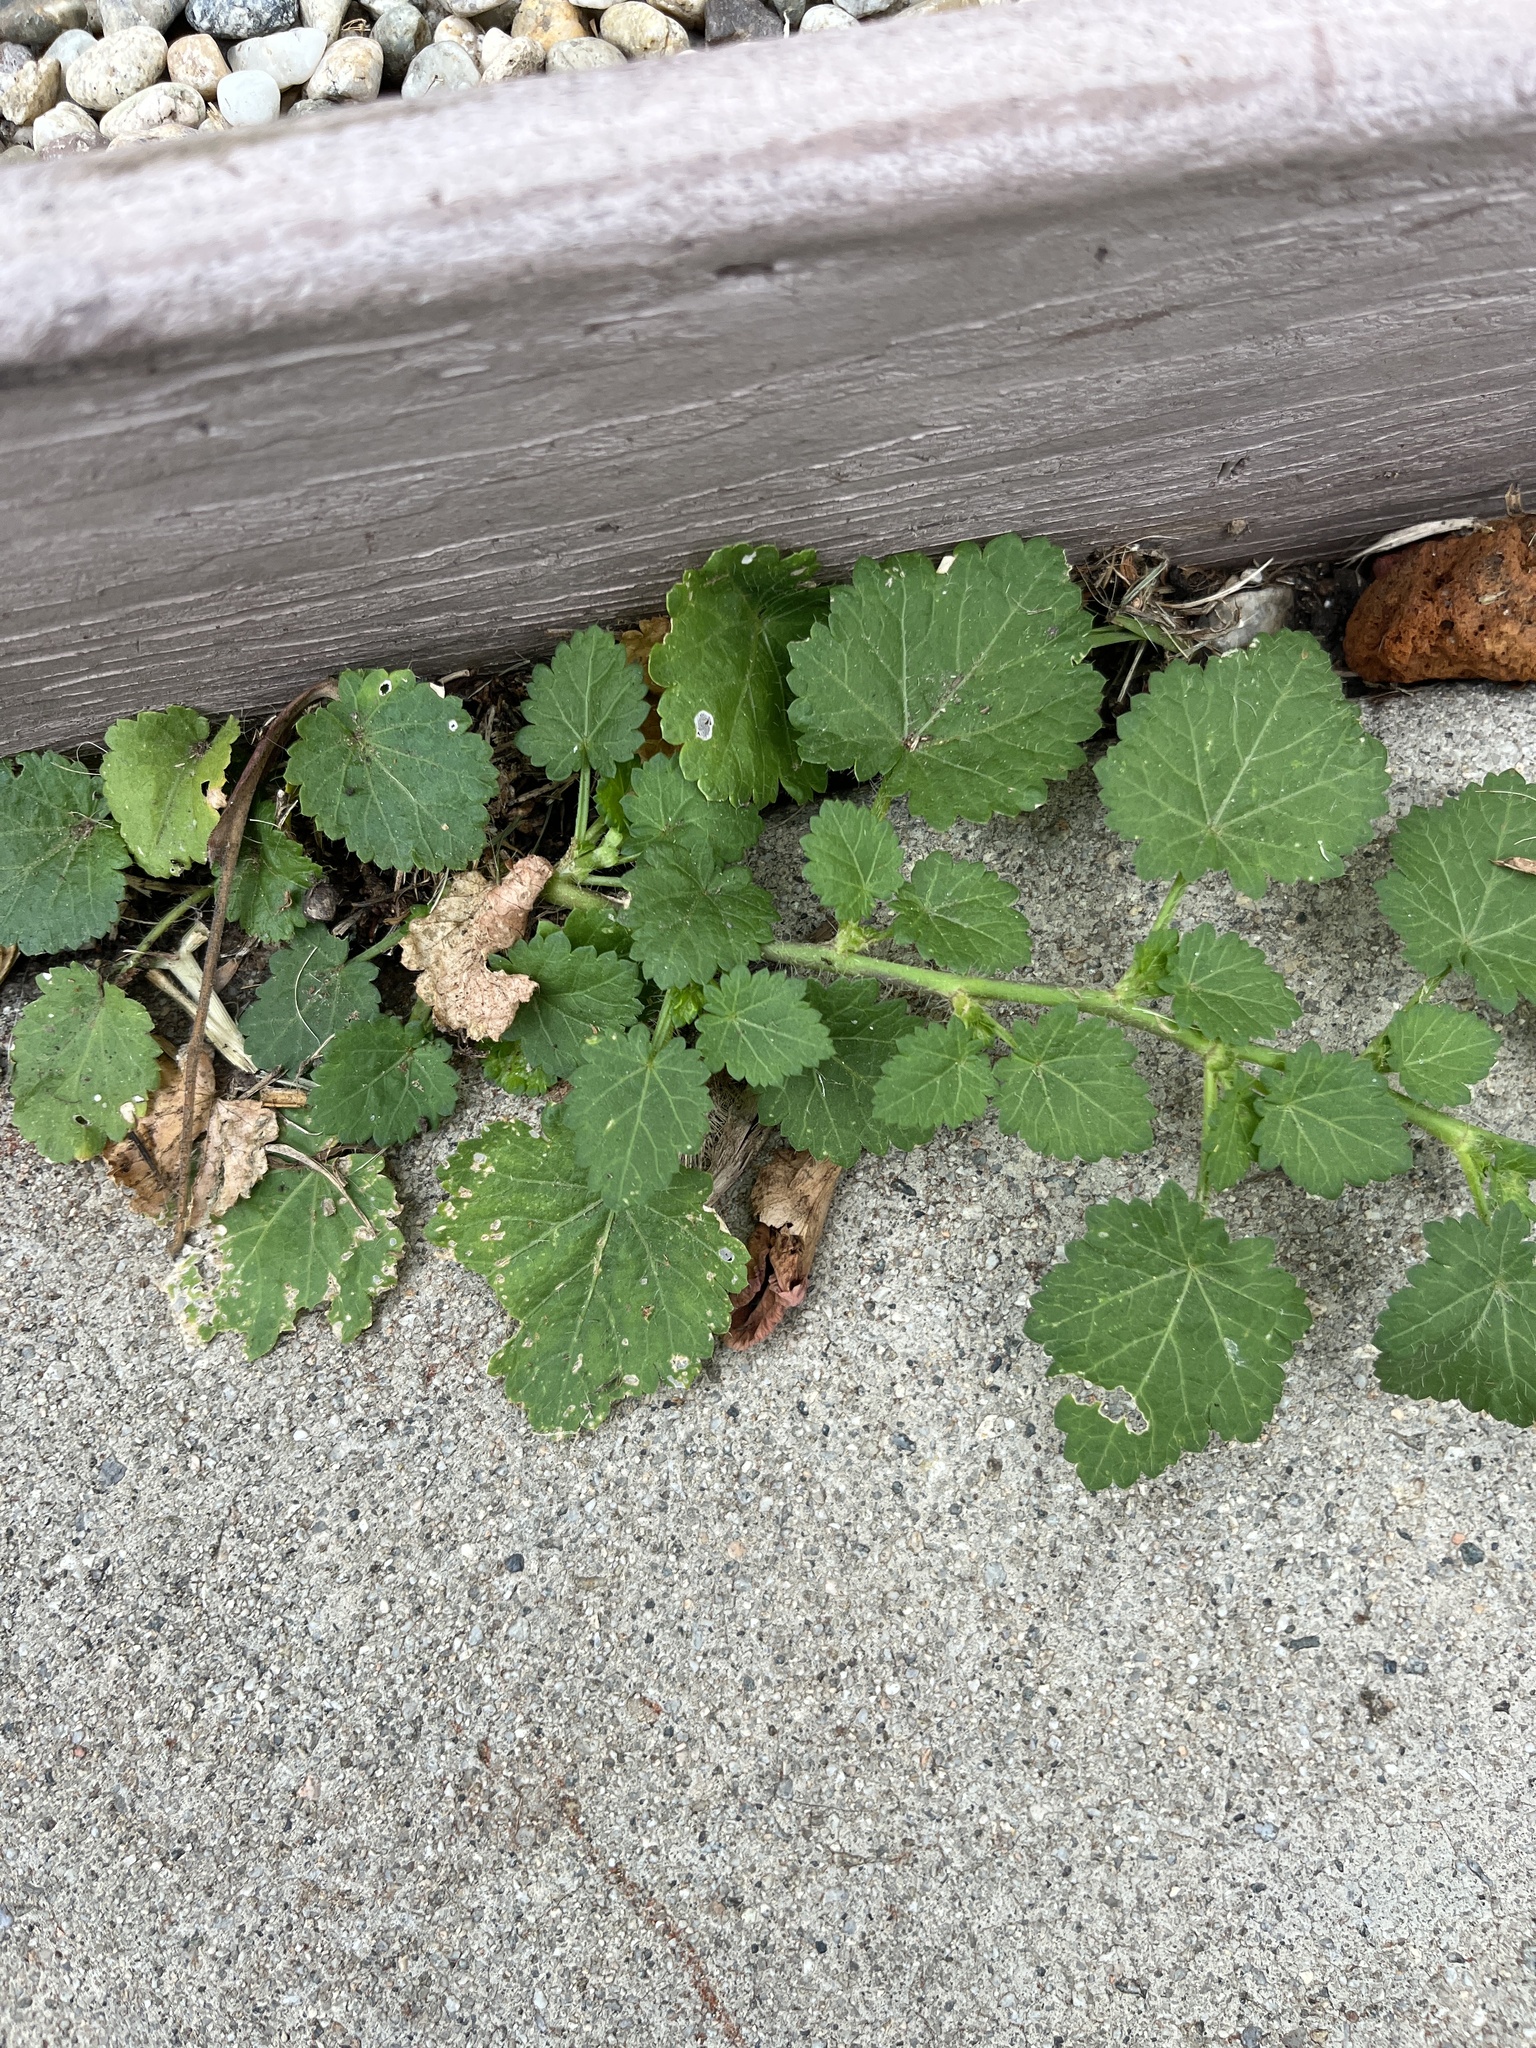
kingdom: Plantae
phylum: Tracheophyta
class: Magnoliopsida
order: Malvales
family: Malvaceae
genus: Modiola
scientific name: Modiola caroliniana
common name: Carolina bristlemallow
